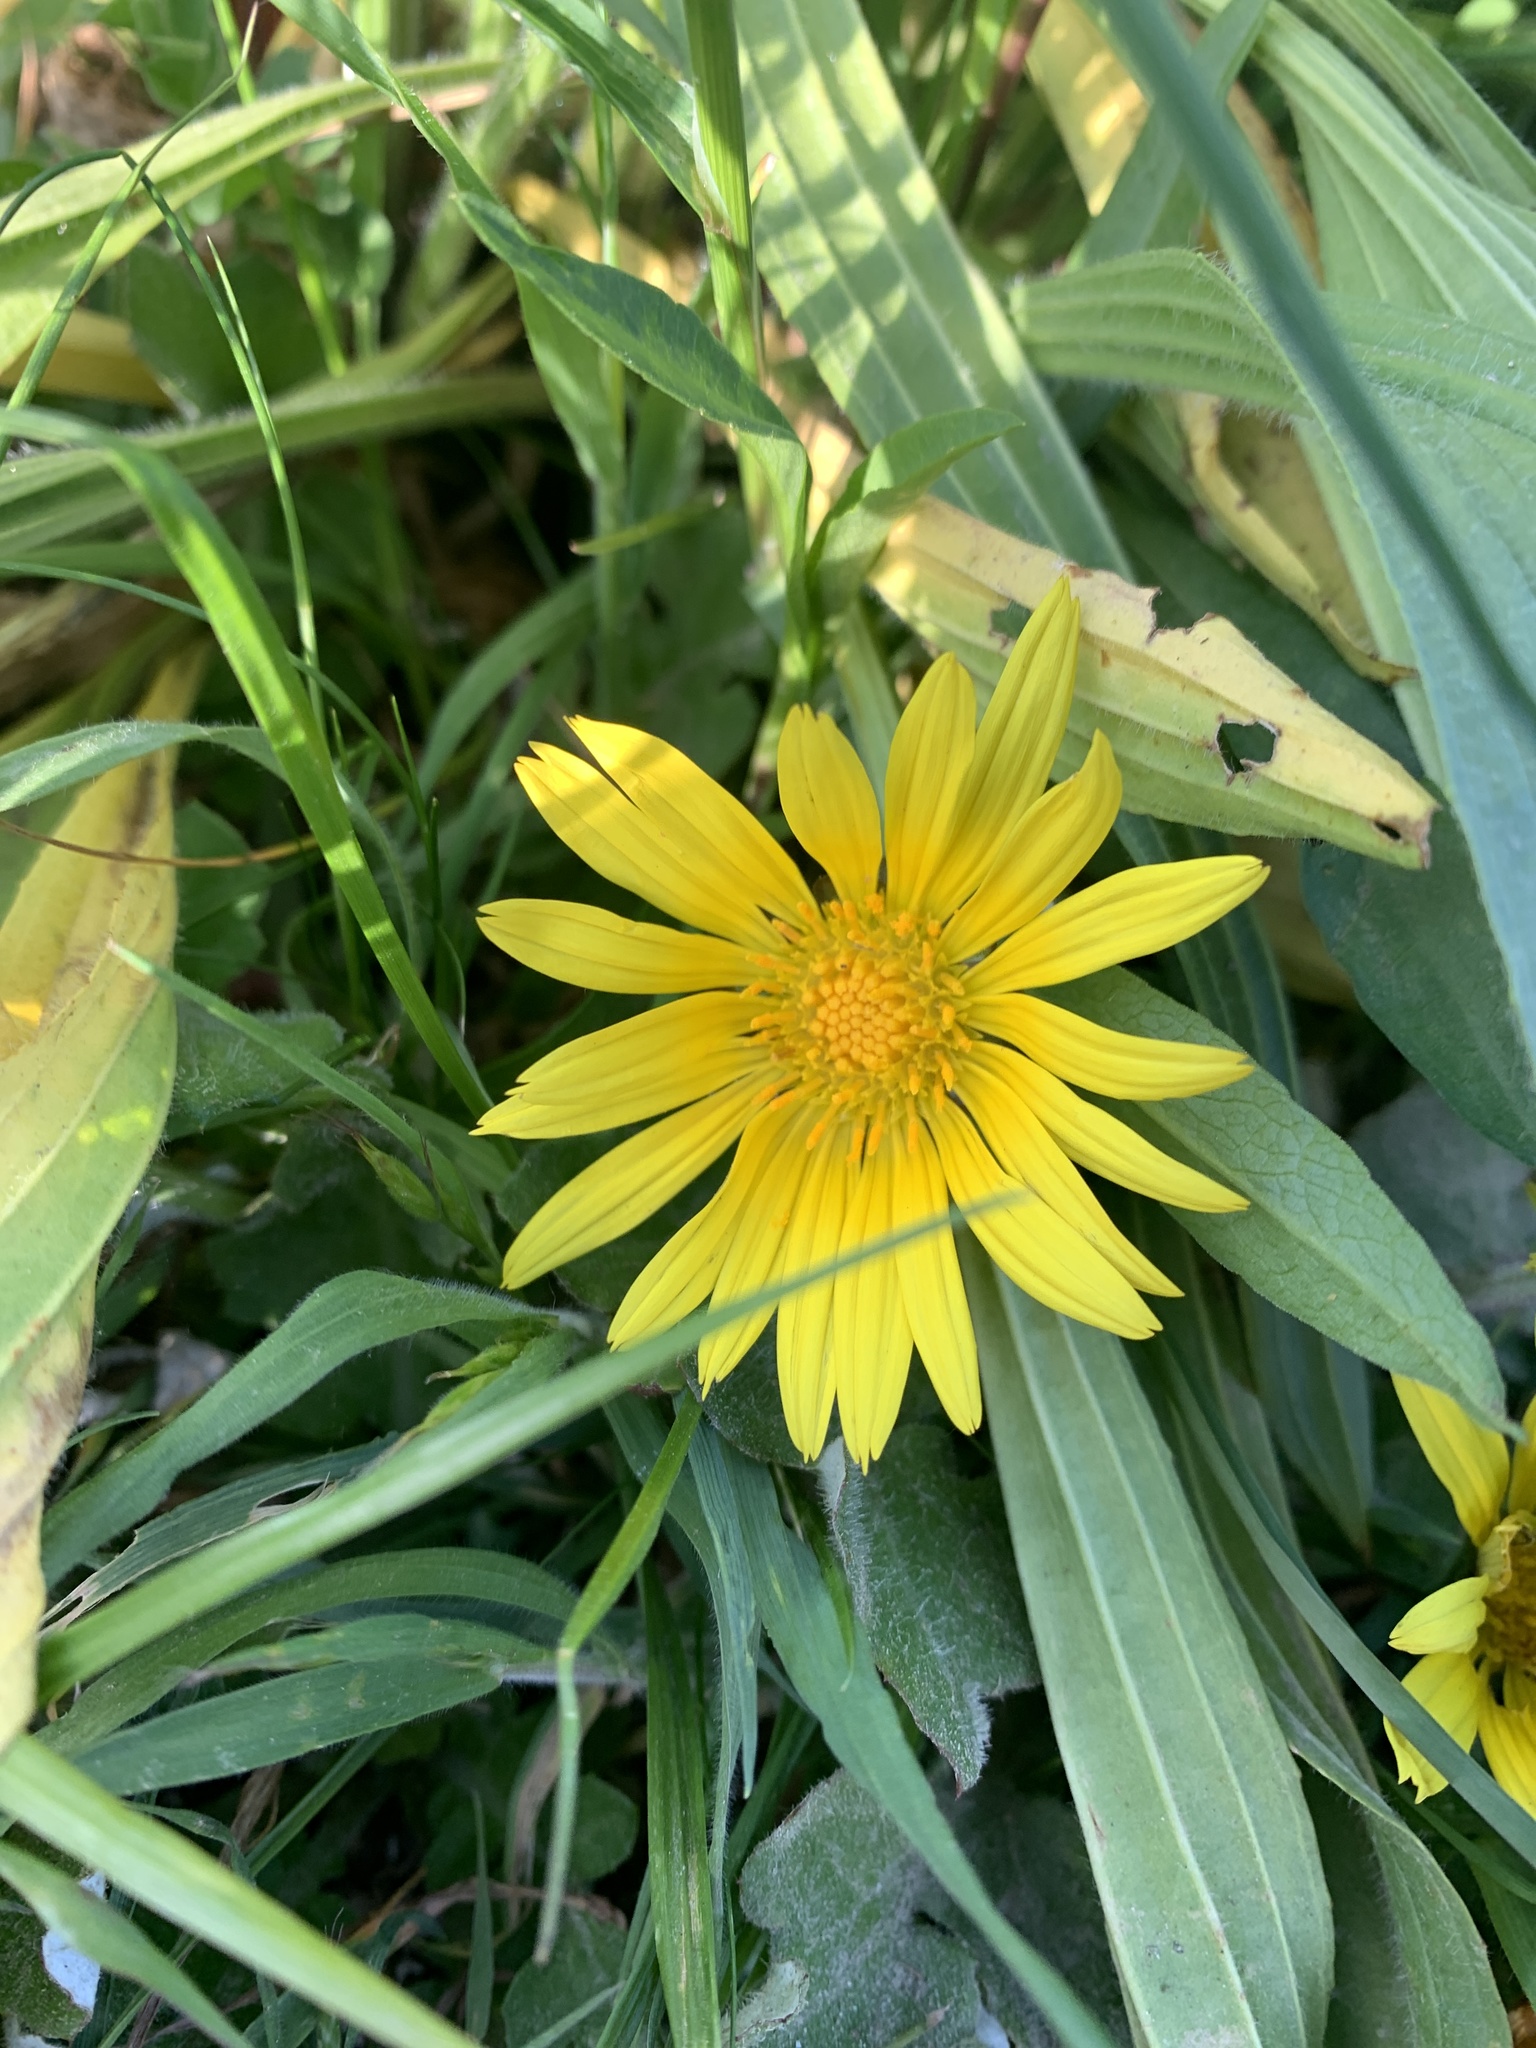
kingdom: Plantae
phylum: Tracheophyta
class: Magnoliopsida
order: Asterales
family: Asteraceae
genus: Arctotheca
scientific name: Arctotheca prostrata
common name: Capeweed
